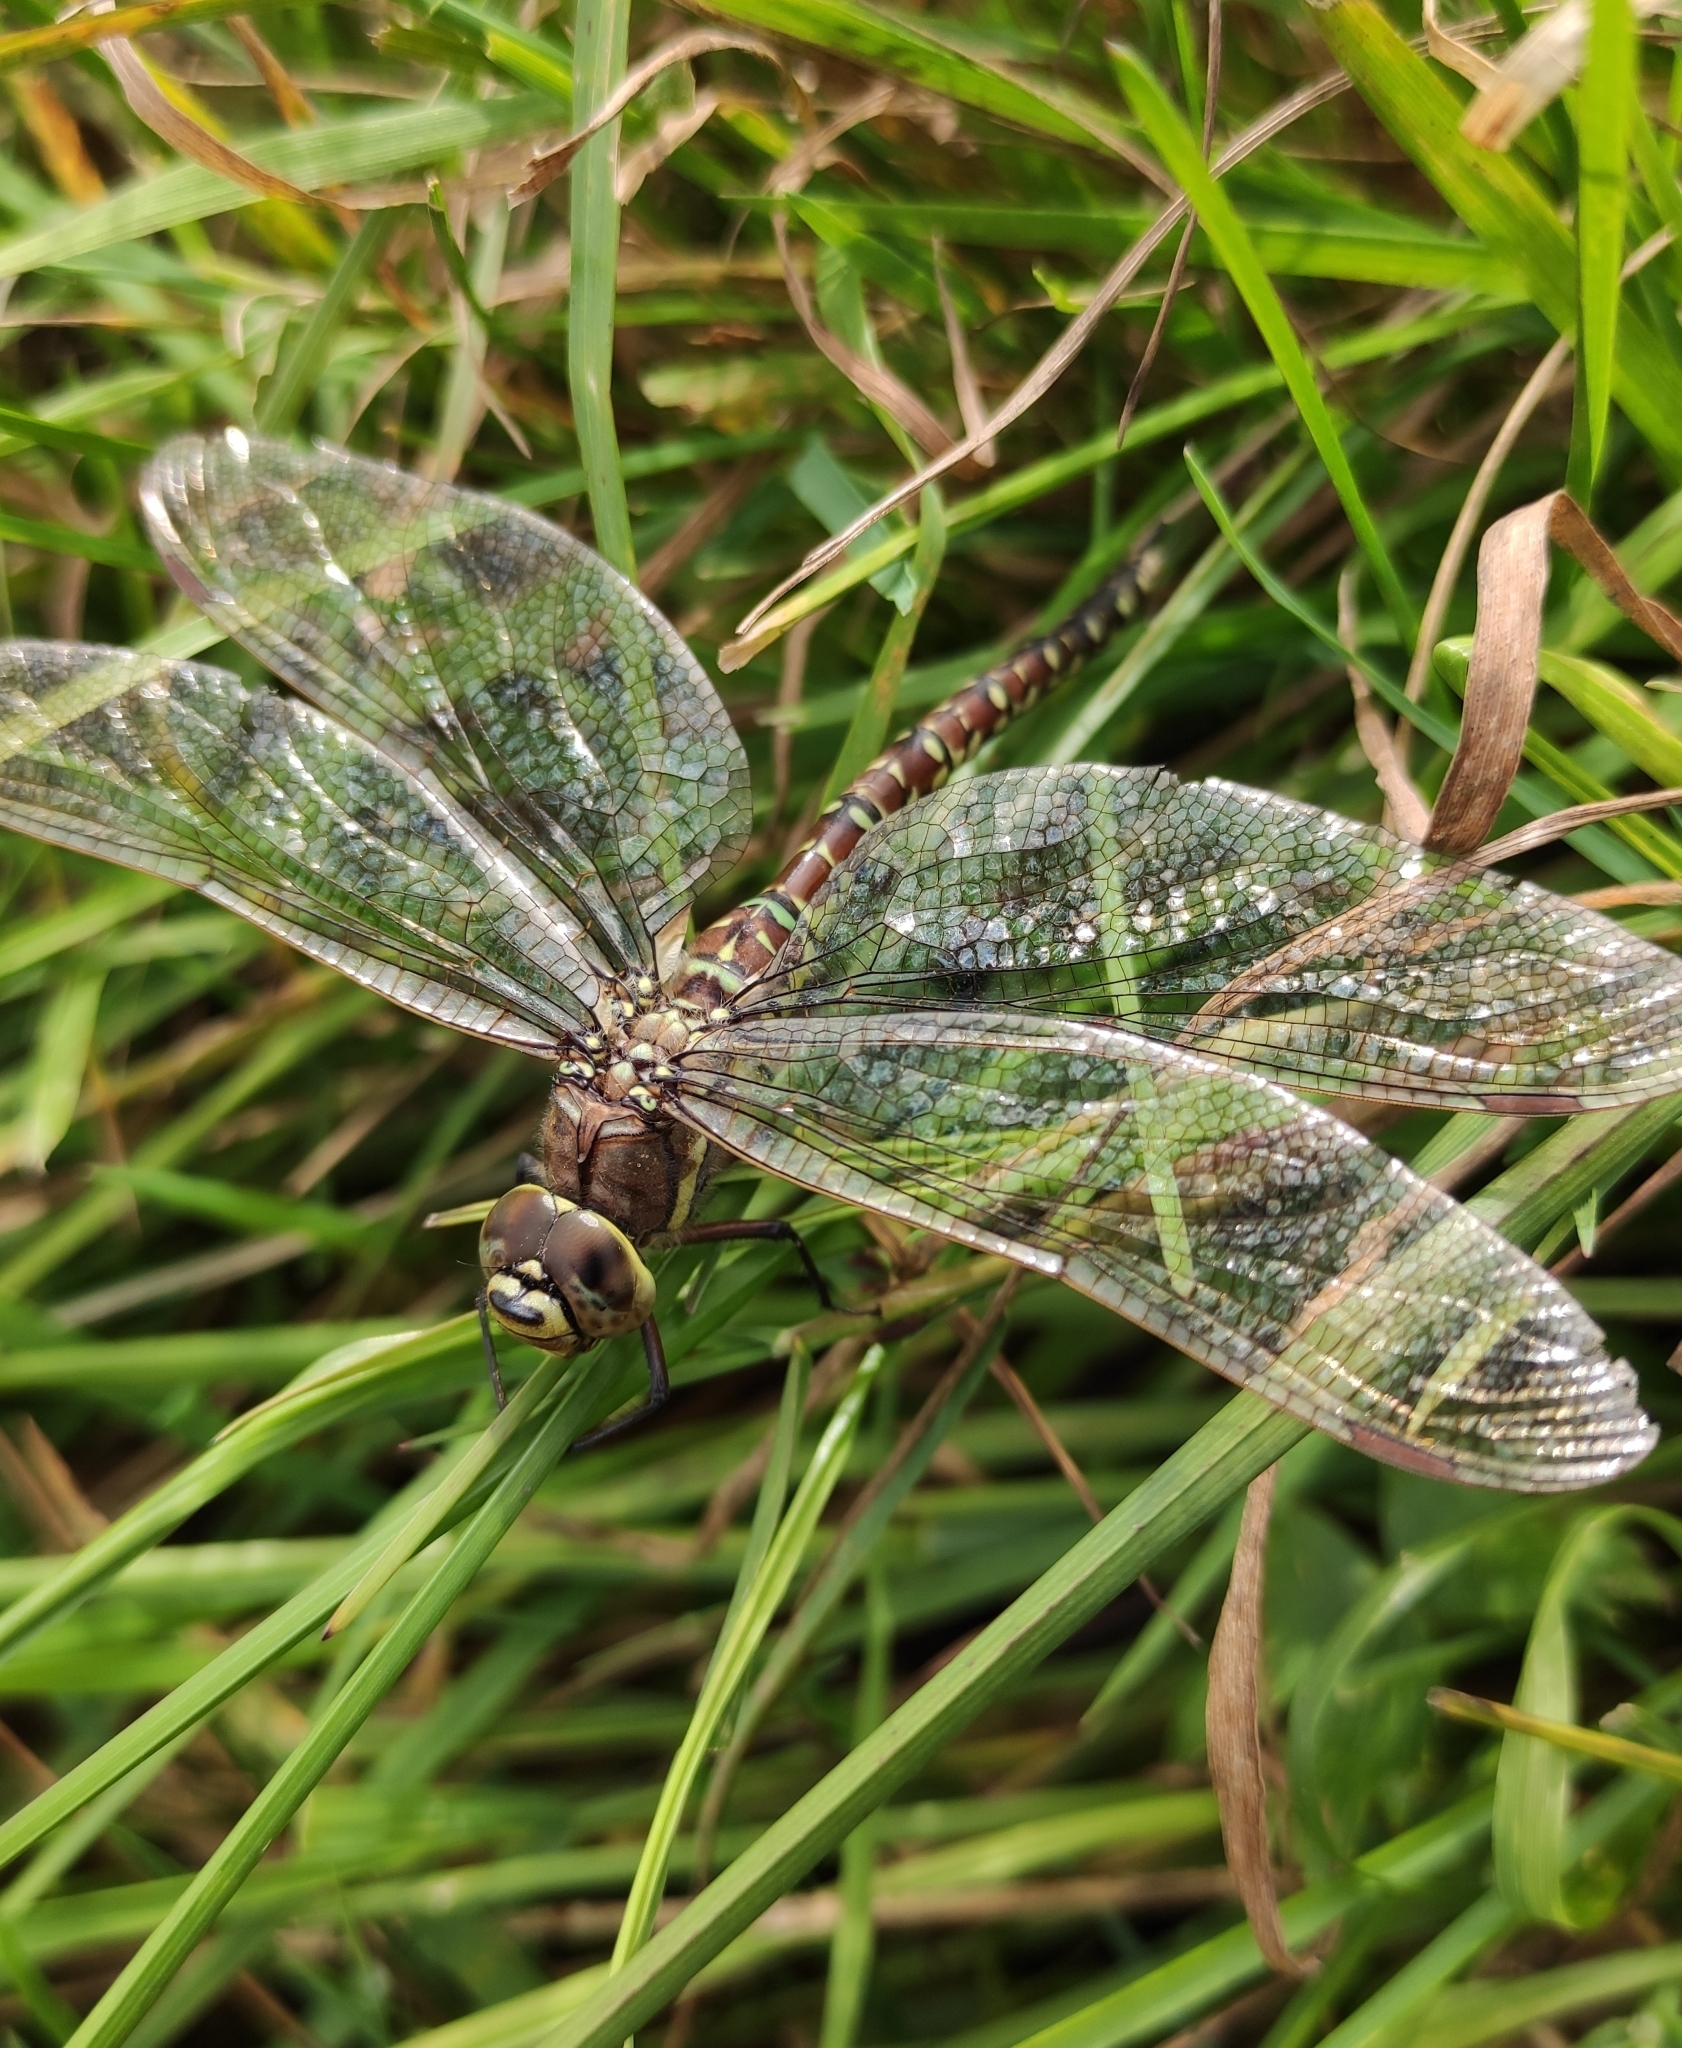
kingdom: Animalia
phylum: Arthropoda
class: Insecta
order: Odonata
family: Aeshnidae
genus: Aeshna
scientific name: Aeshna juncea
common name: Moorland hawker
